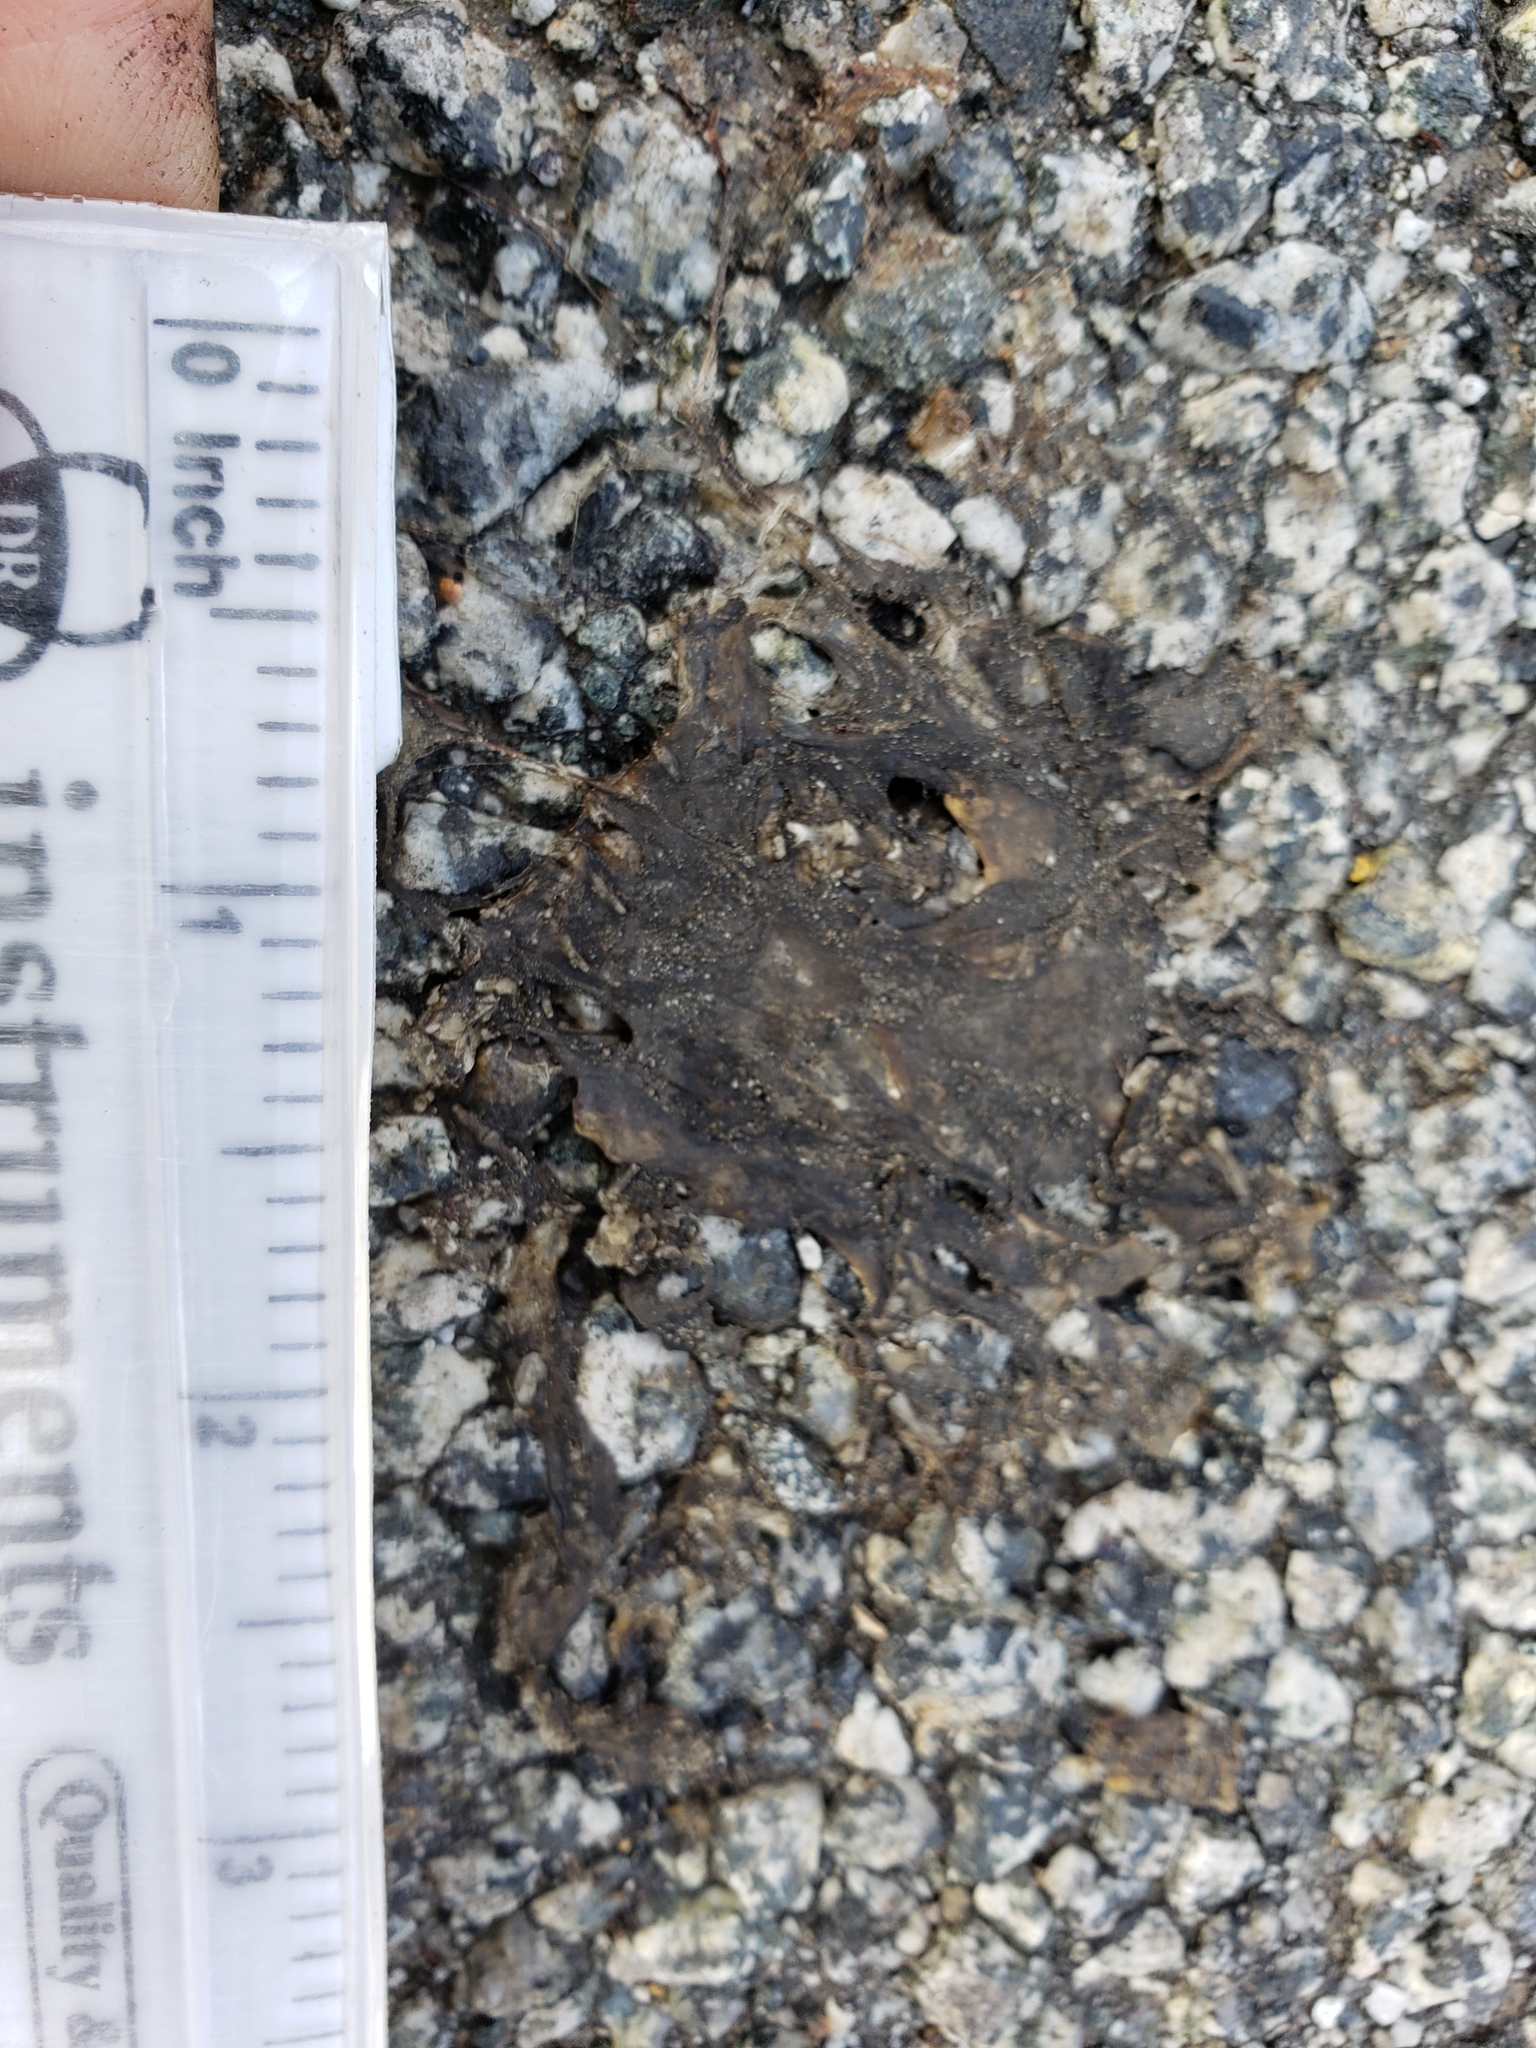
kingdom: Animalia
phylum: Chordata
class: Amphibia
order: Caudata
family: Salamandridae
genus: Taricha
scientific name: Taricha
